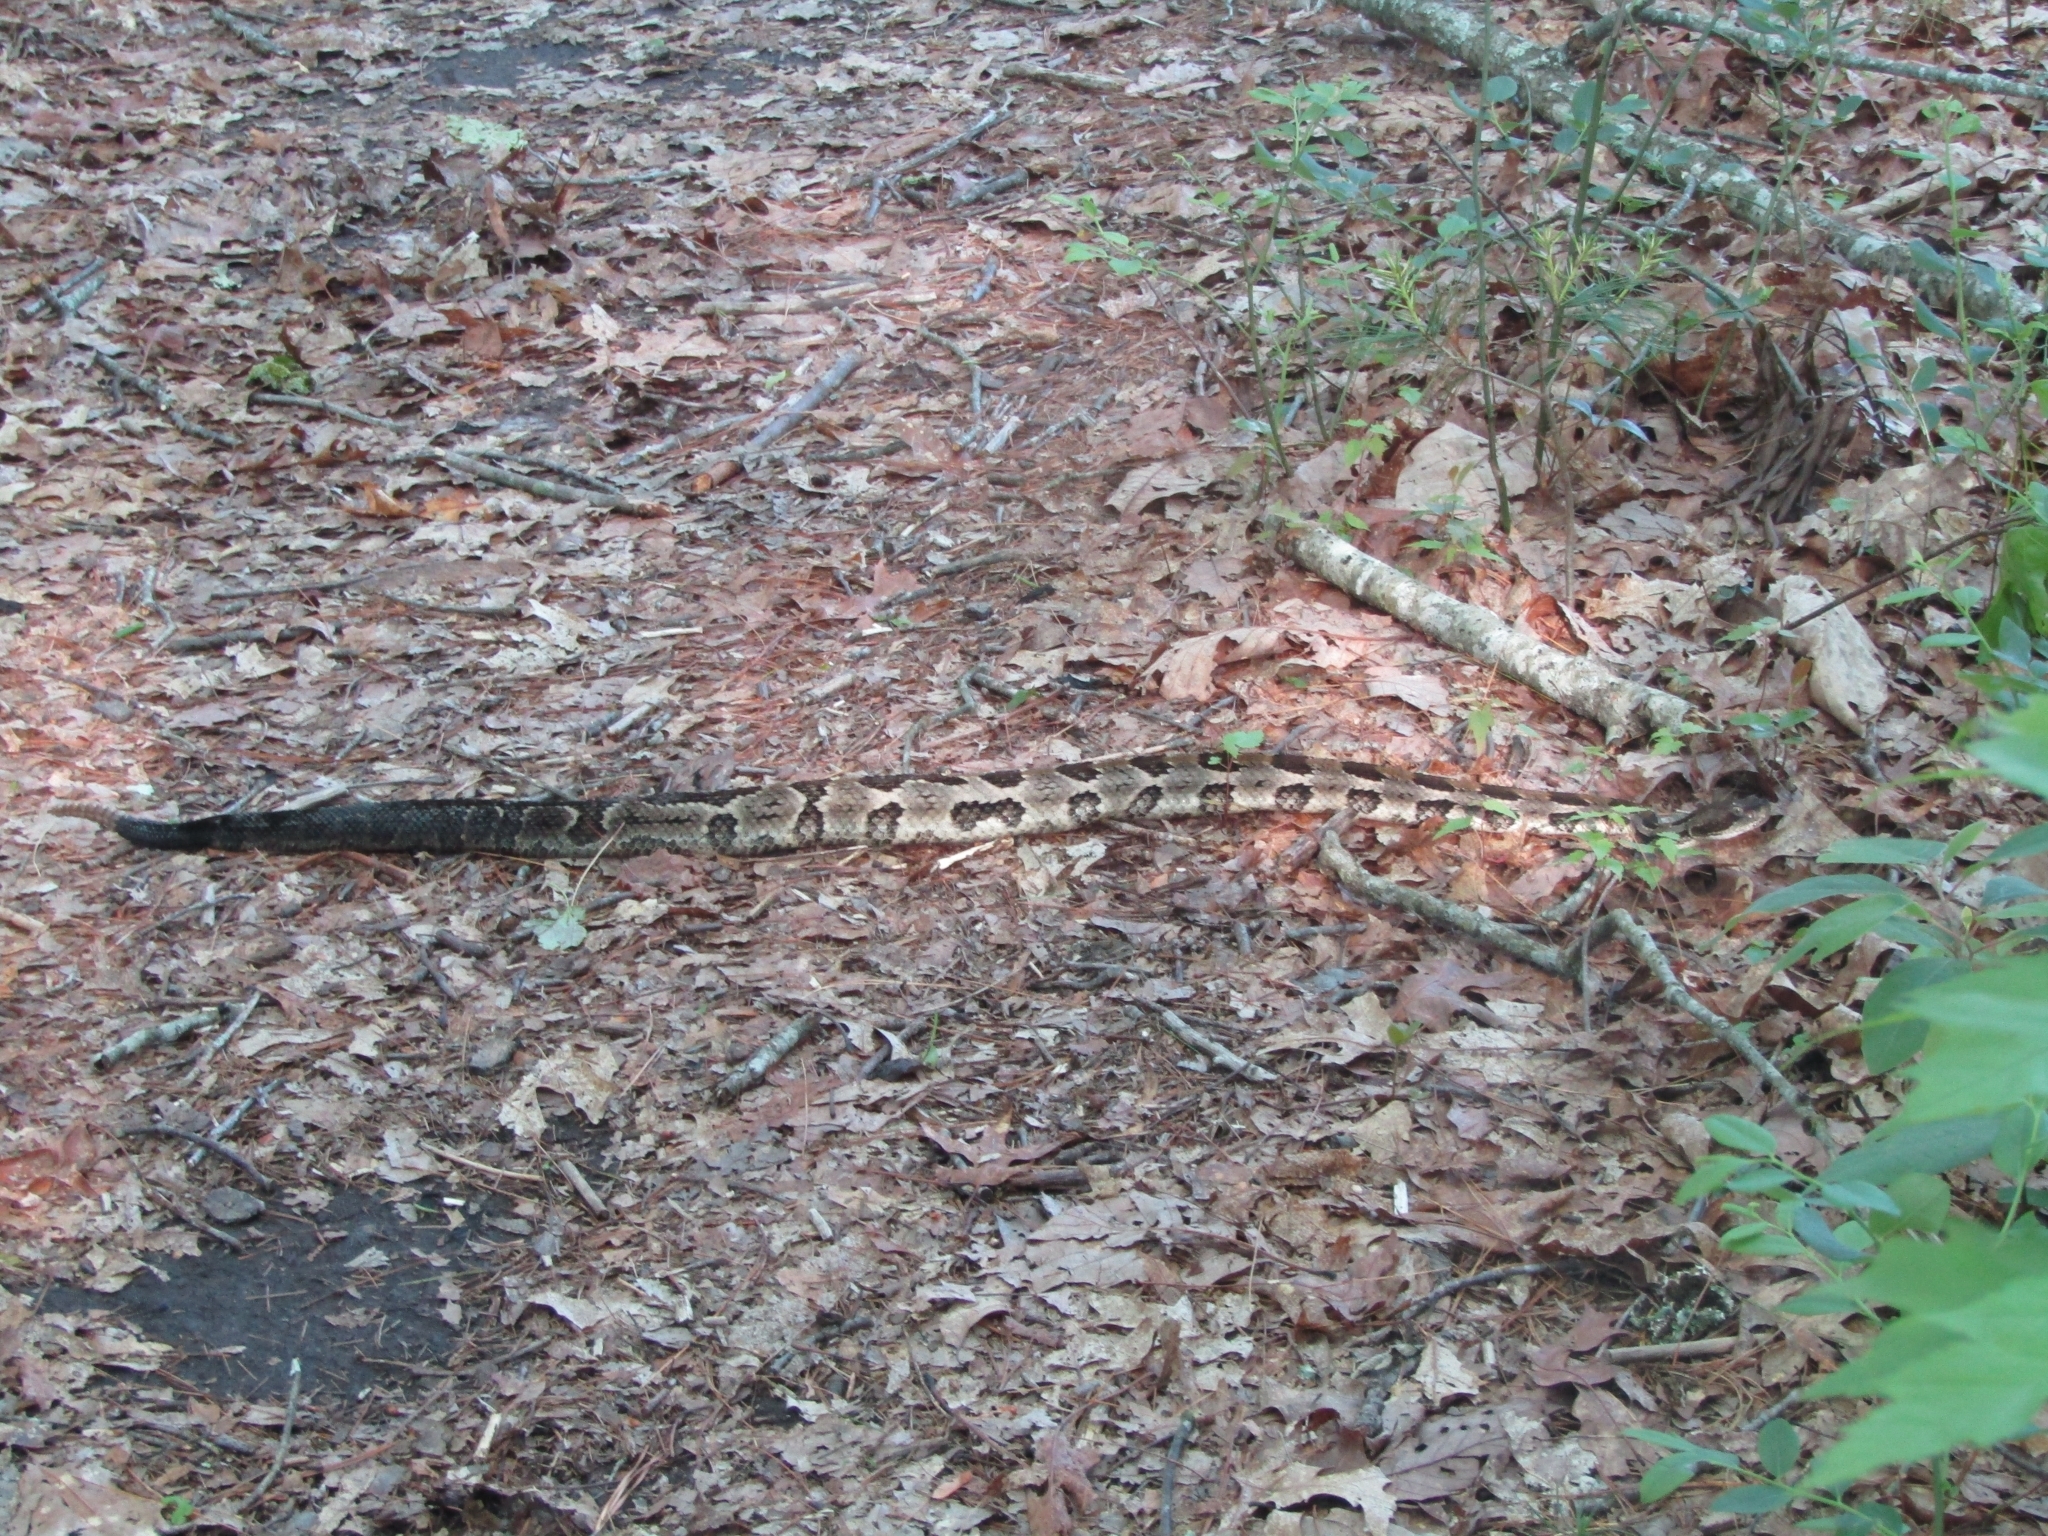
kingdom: Animalia
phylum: Chordata
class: Squamata
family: Viperidae
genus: Crotalus
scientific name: Crotalus horridus
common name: Timber rattlesnake
